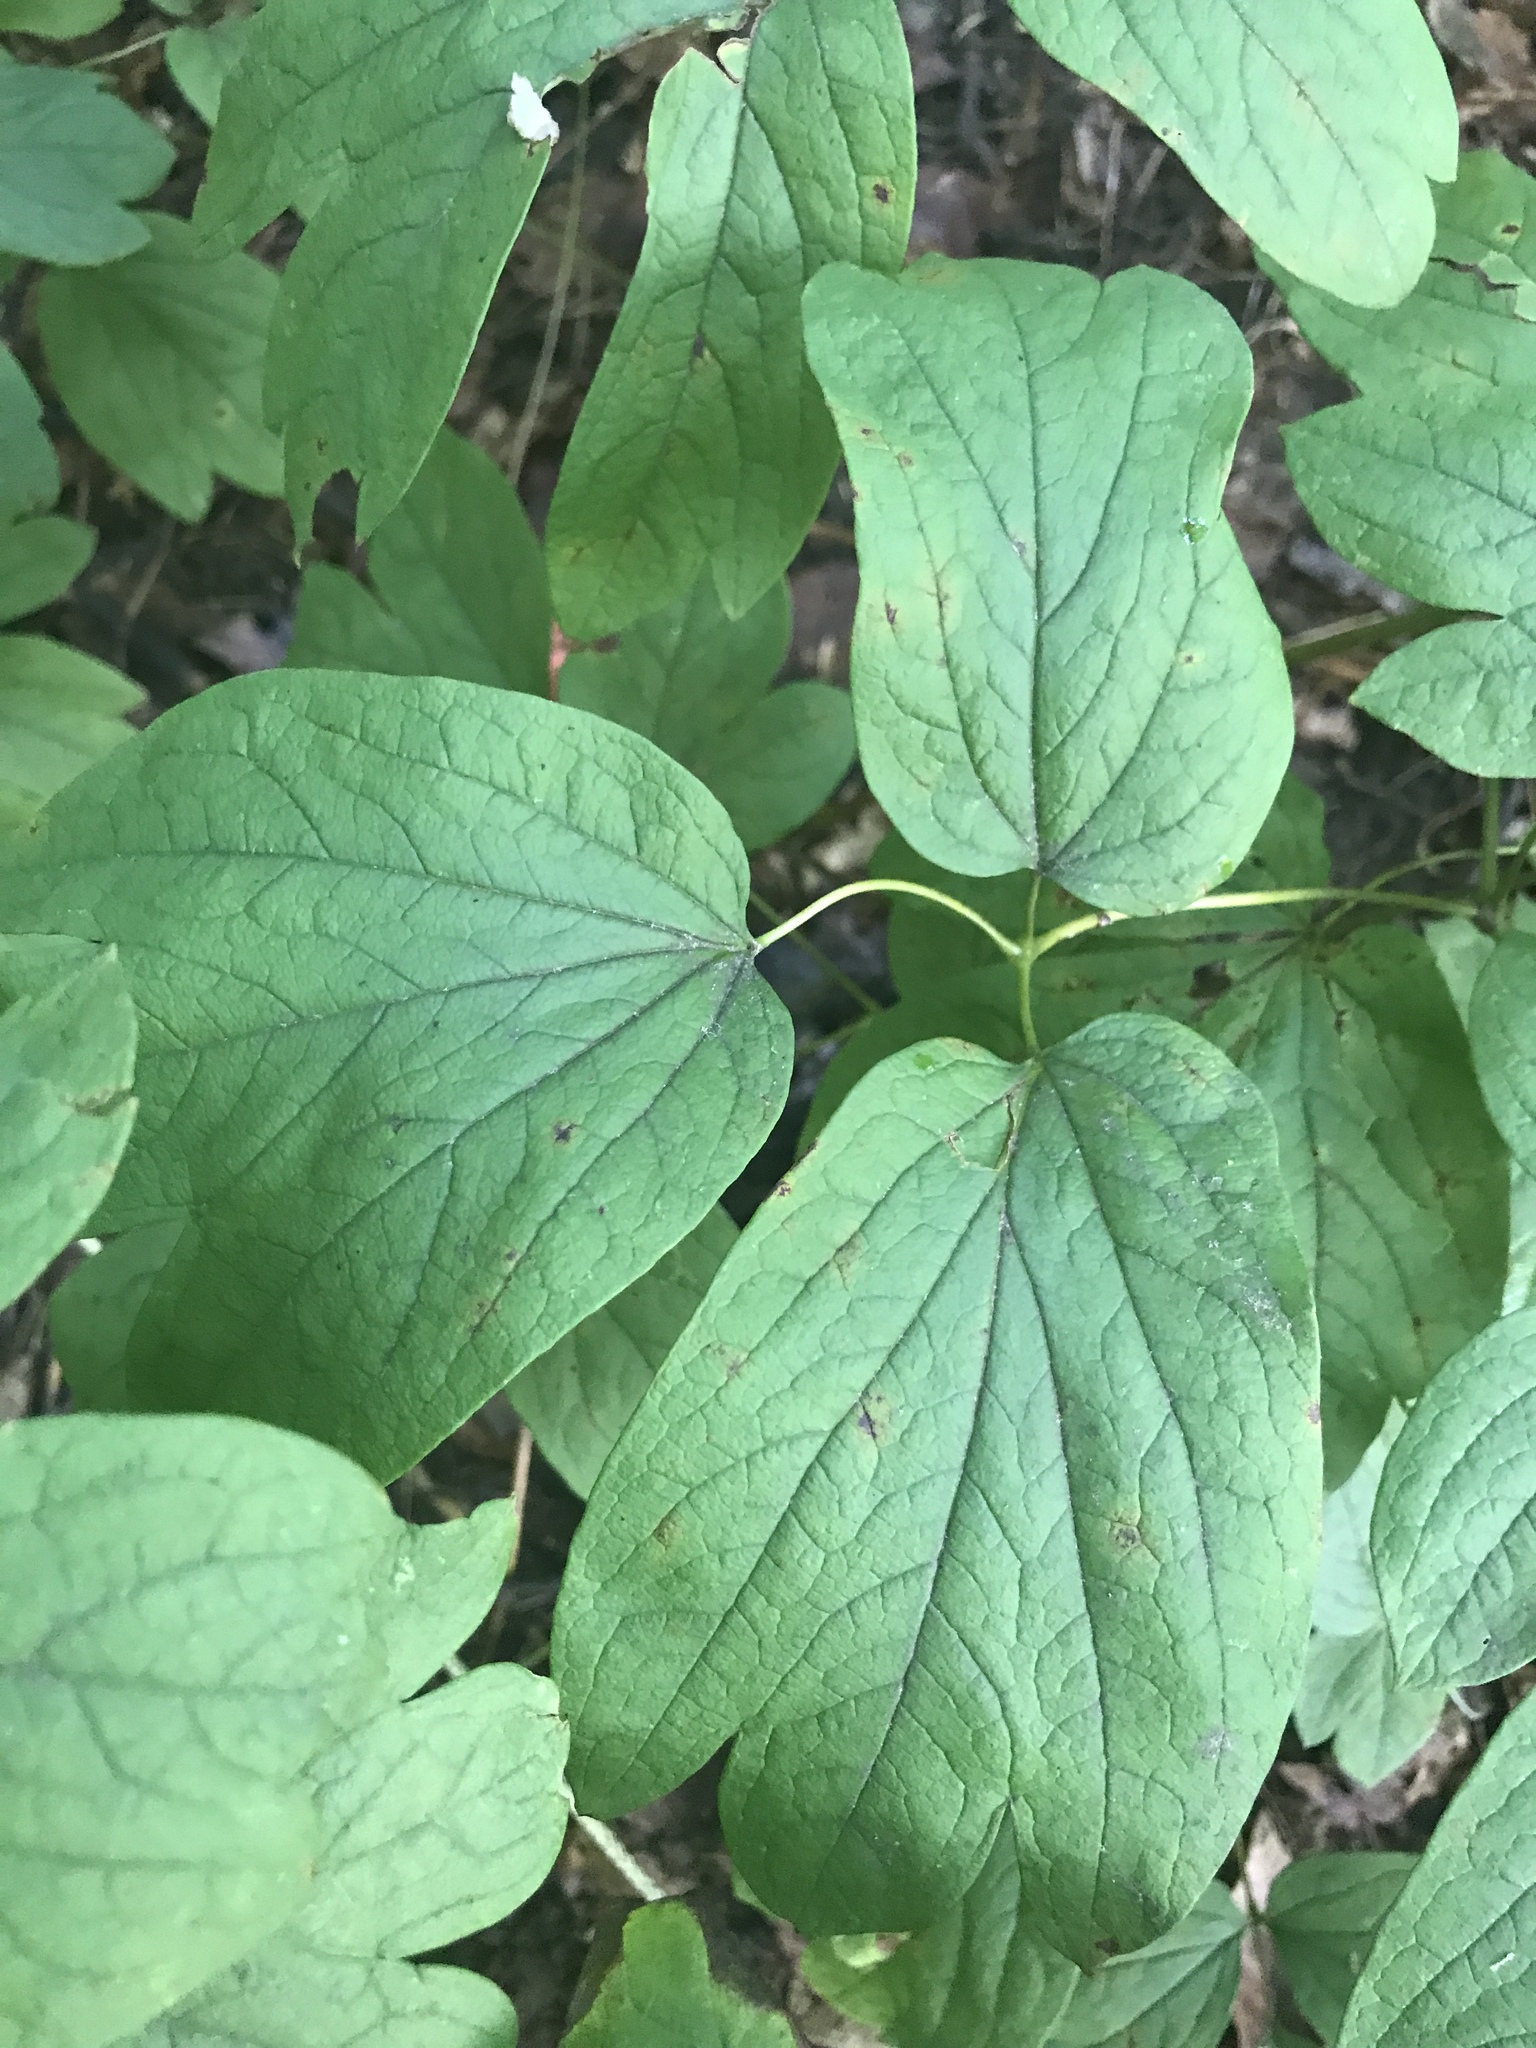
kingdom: Plantae
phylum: Tracheophyta
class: Magnoliopsida
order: Ranunculales
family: Berberidaceae
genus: Caulophyllum
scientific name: Caulophyllum thalictroides
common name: Blue cohosh
